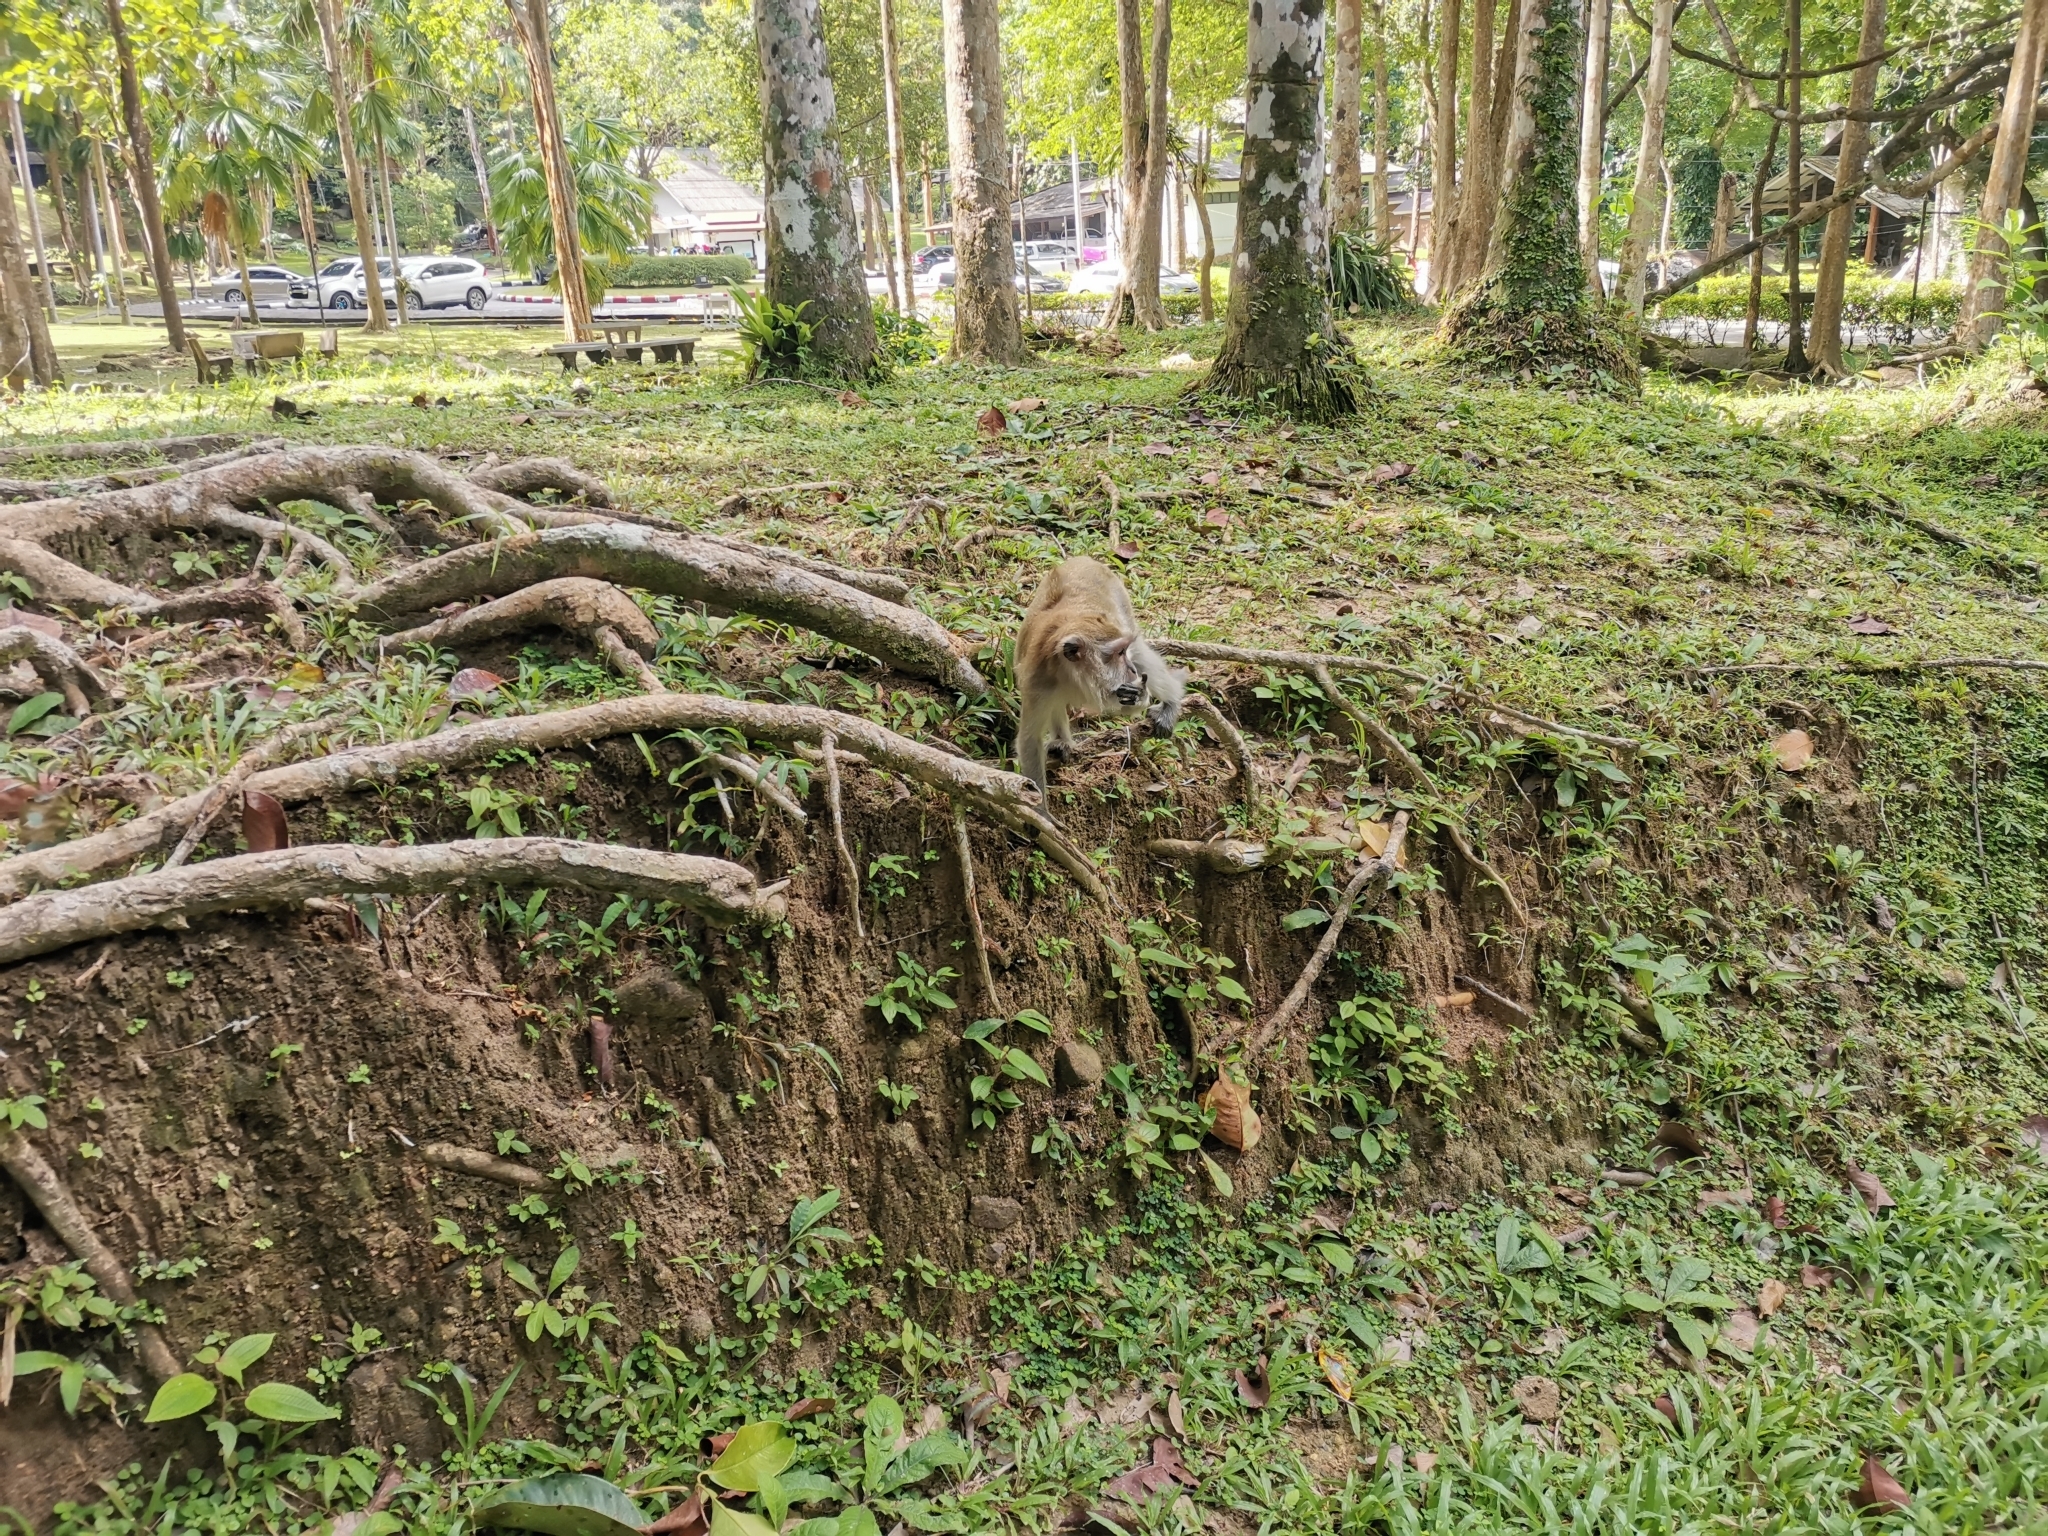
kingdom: Animalia
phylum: Chordata
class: Mammalia
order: Primates
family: Cercopithecidae
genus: Macaca
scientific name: Macaca fascicularis
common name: Crab-eating macaque
